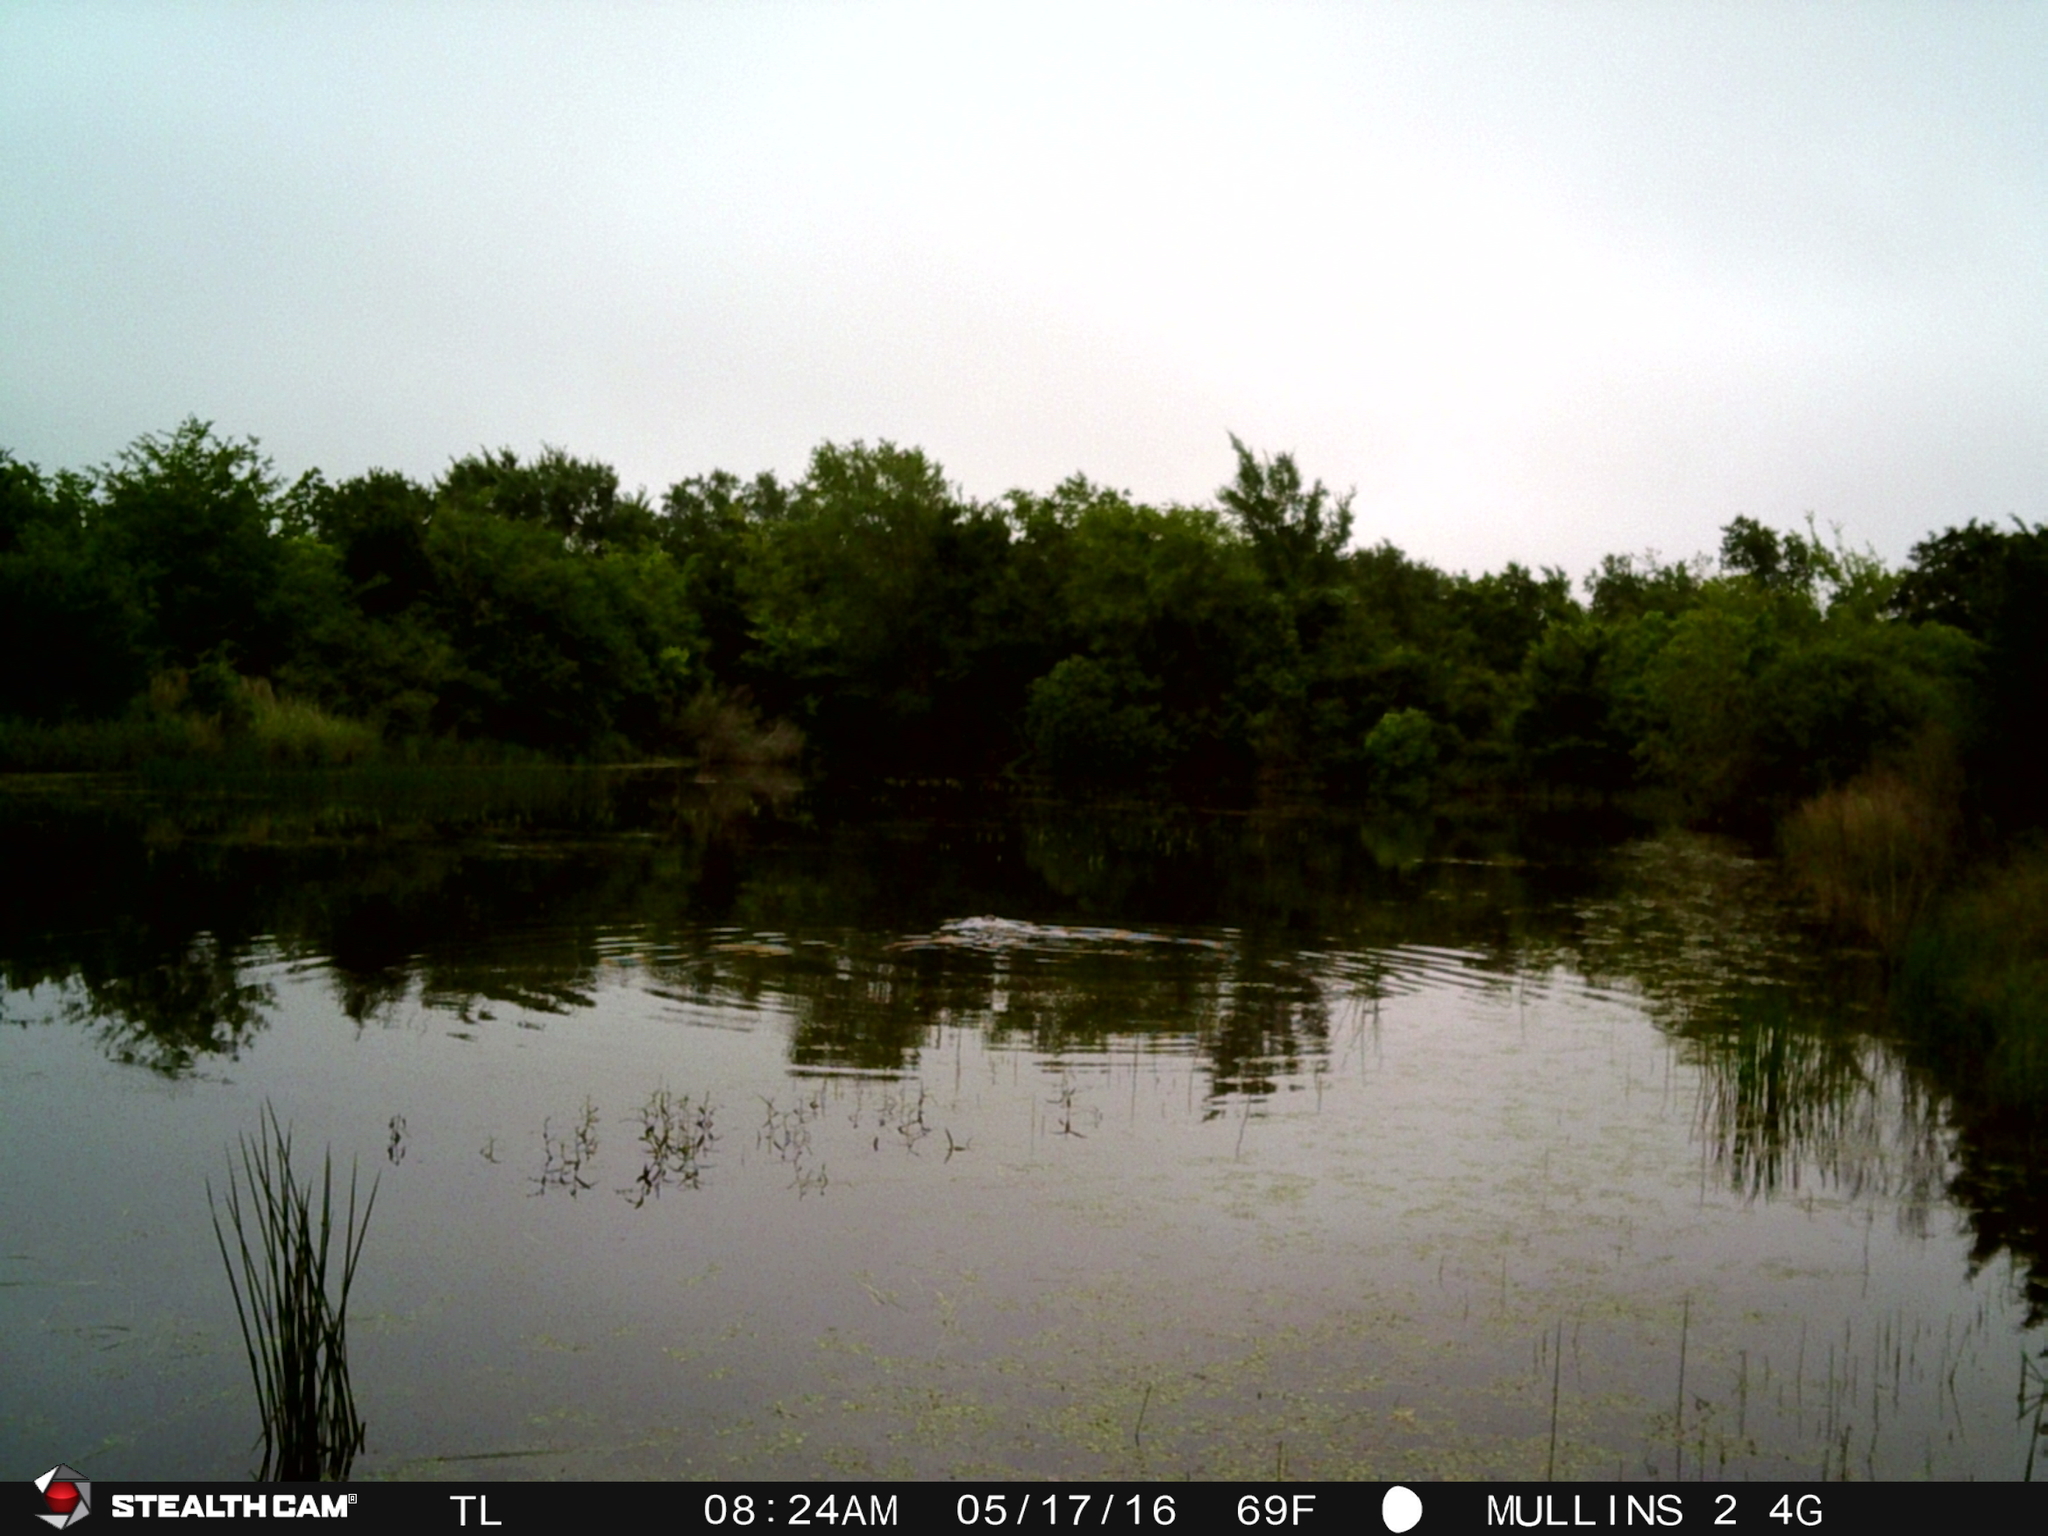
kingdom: Animalia
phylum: Chordata
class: Mammalia
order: Carnivora
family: Mustelidae
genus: Lontra
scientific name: Lontra canadensis
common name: North american river otter
